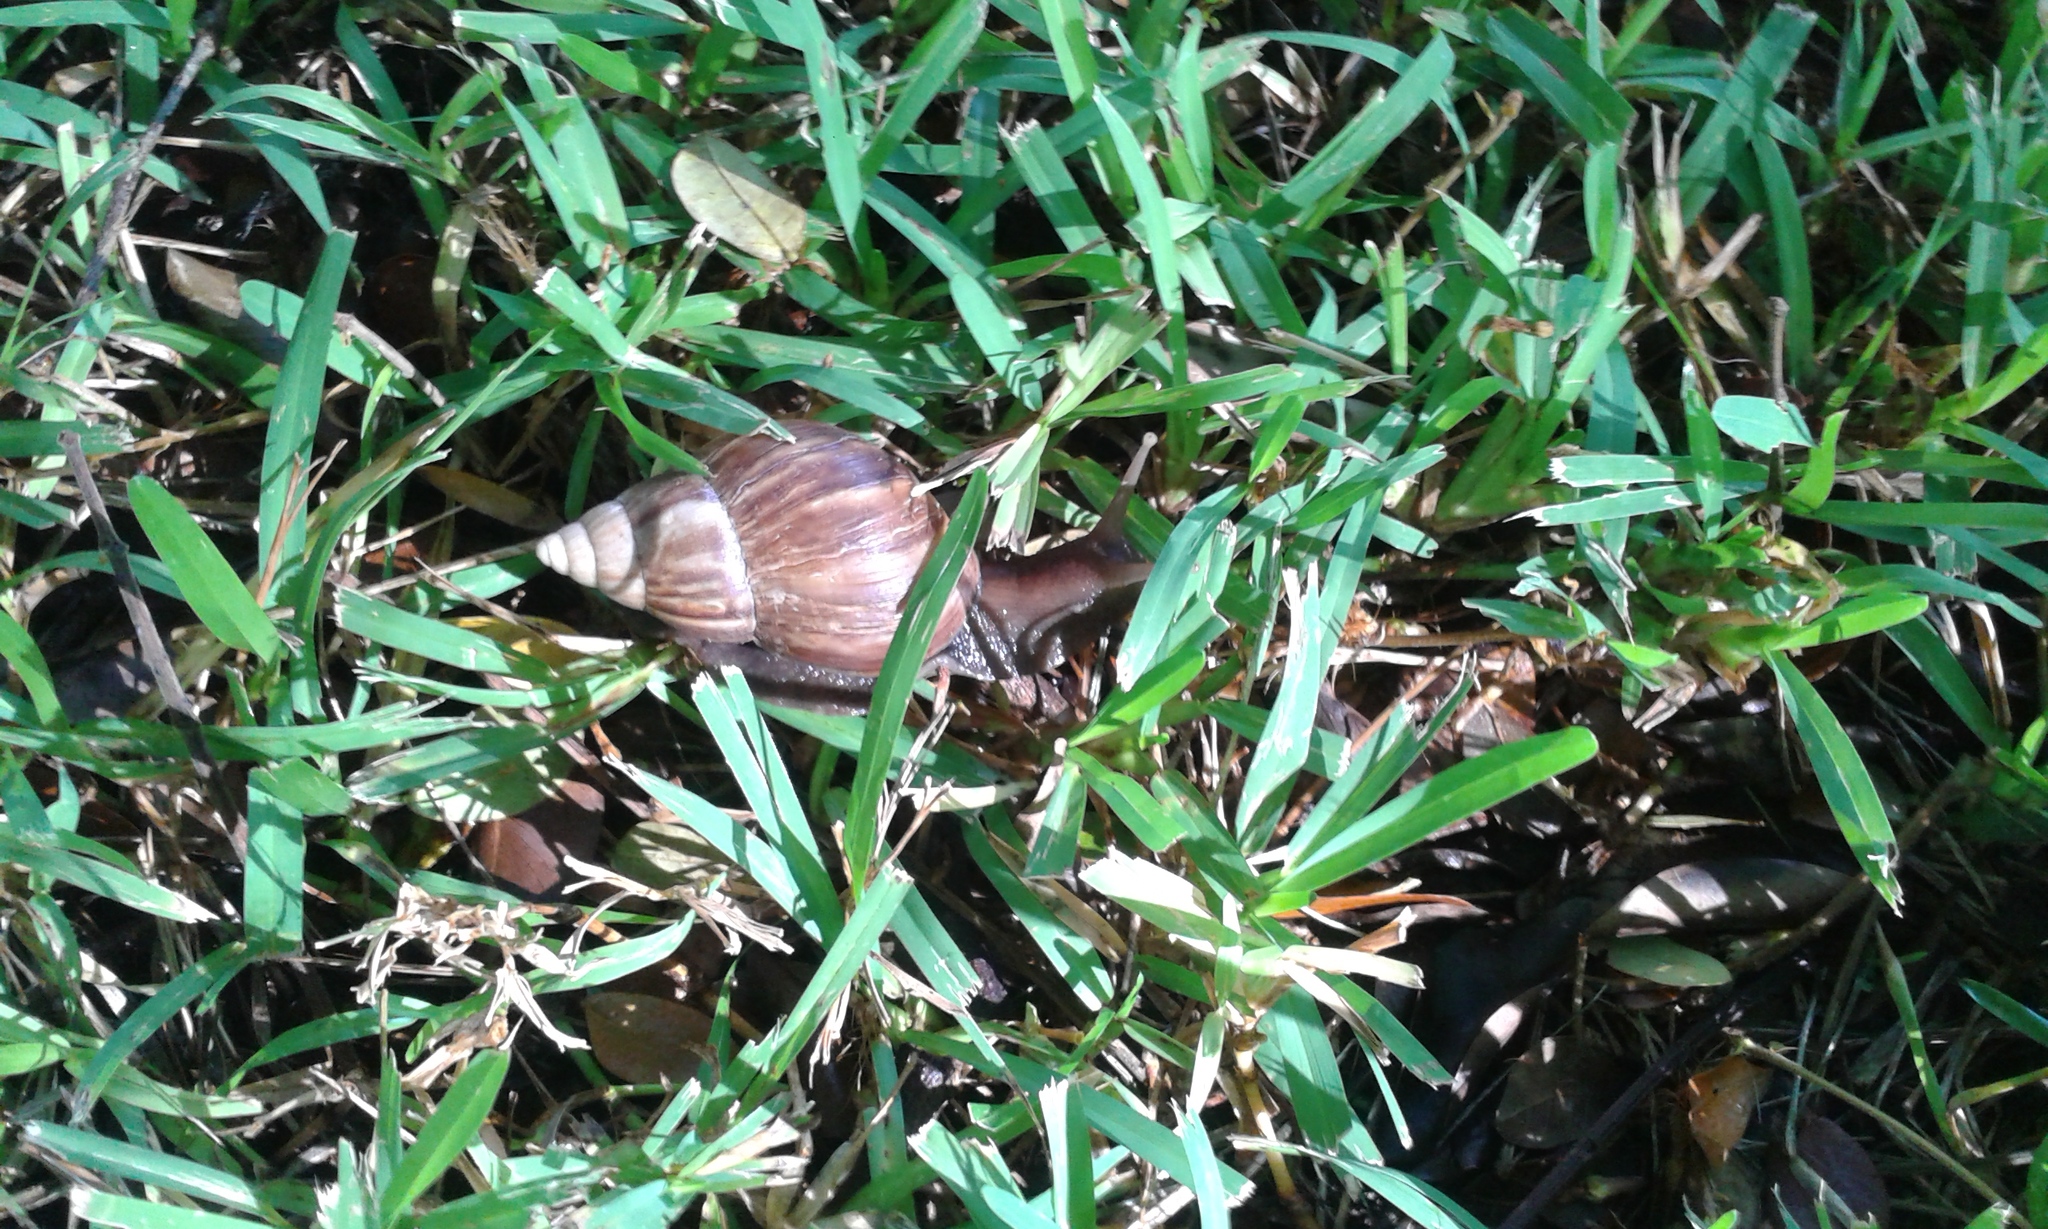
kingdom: Animalia
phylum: Mollusca
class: Gastropoda
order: Stylommatophora
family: Achatinidae
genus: Lissachatina
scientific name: Lissachatina fulica
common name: Giant african snail
